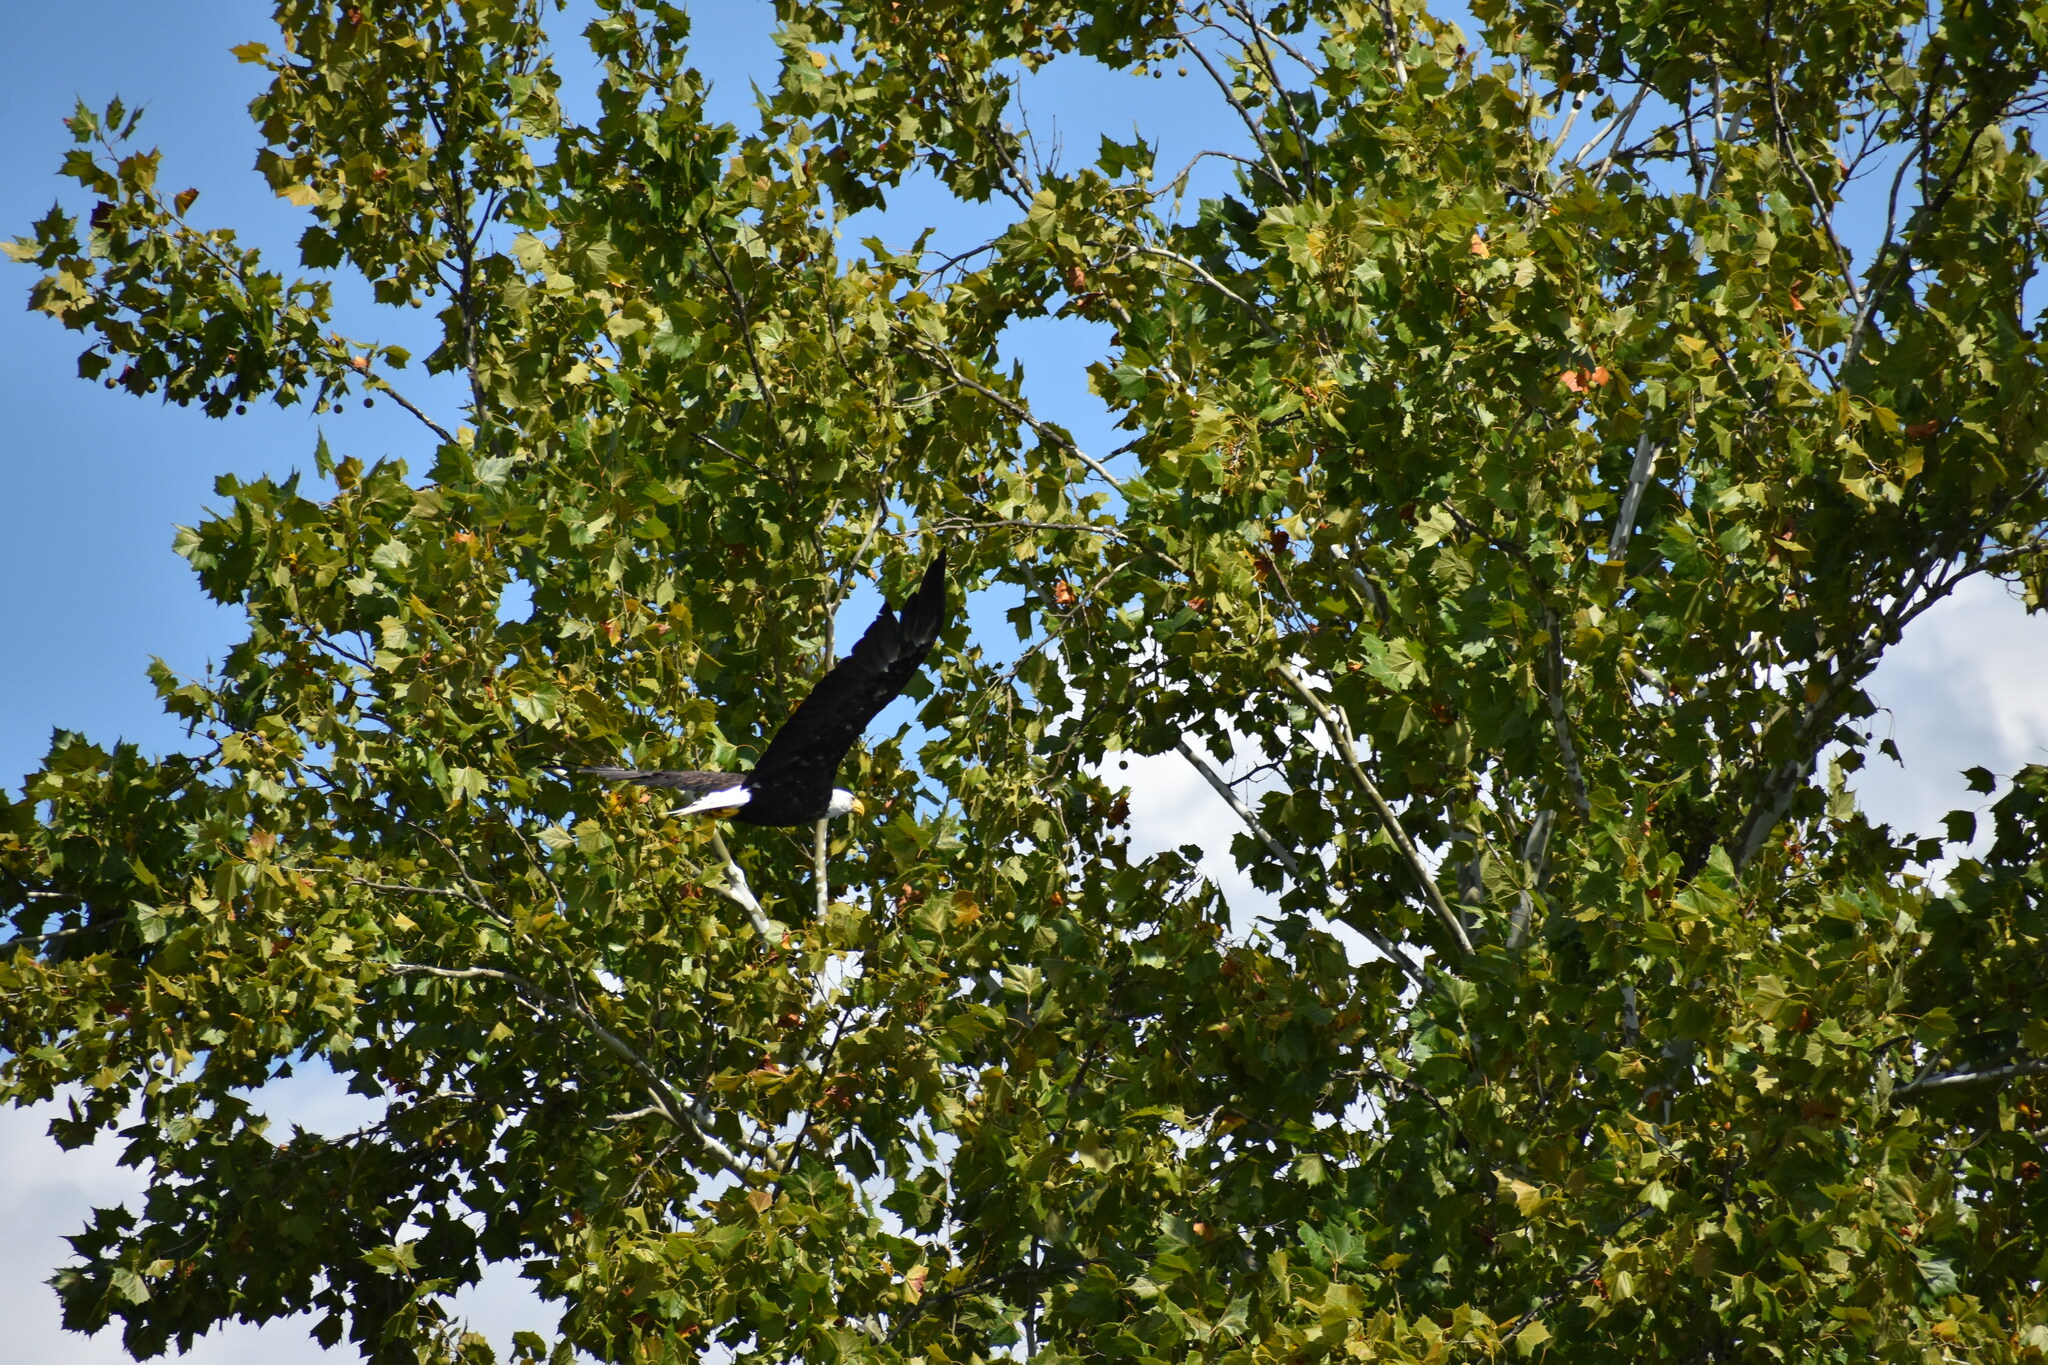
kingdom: Animalia
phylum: Chordata
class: Aves
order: Accipitriformes
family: Accipitridae
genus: Haliaeetus
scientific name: Haliaeetus leucocephalus
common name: Bald eagle
